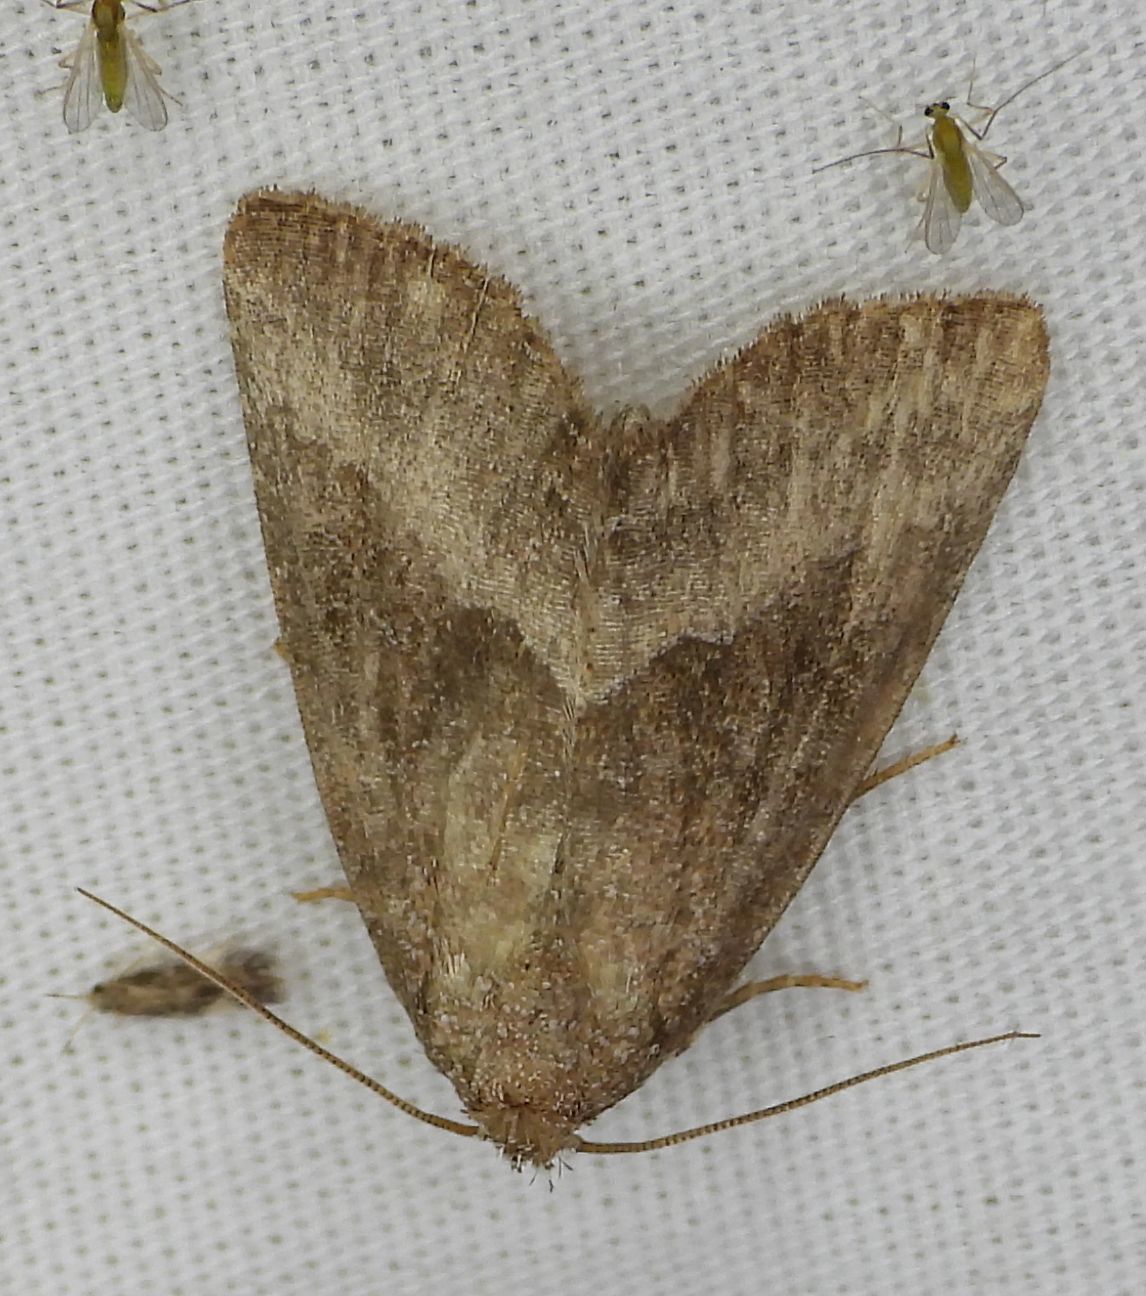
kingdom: Animalia
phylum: Arthropoda
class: Insecta
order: Lepidoptera
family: Noctuidae
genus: Ogdoconta
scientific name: Ogdoconta cinereola
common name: Common pinkband
